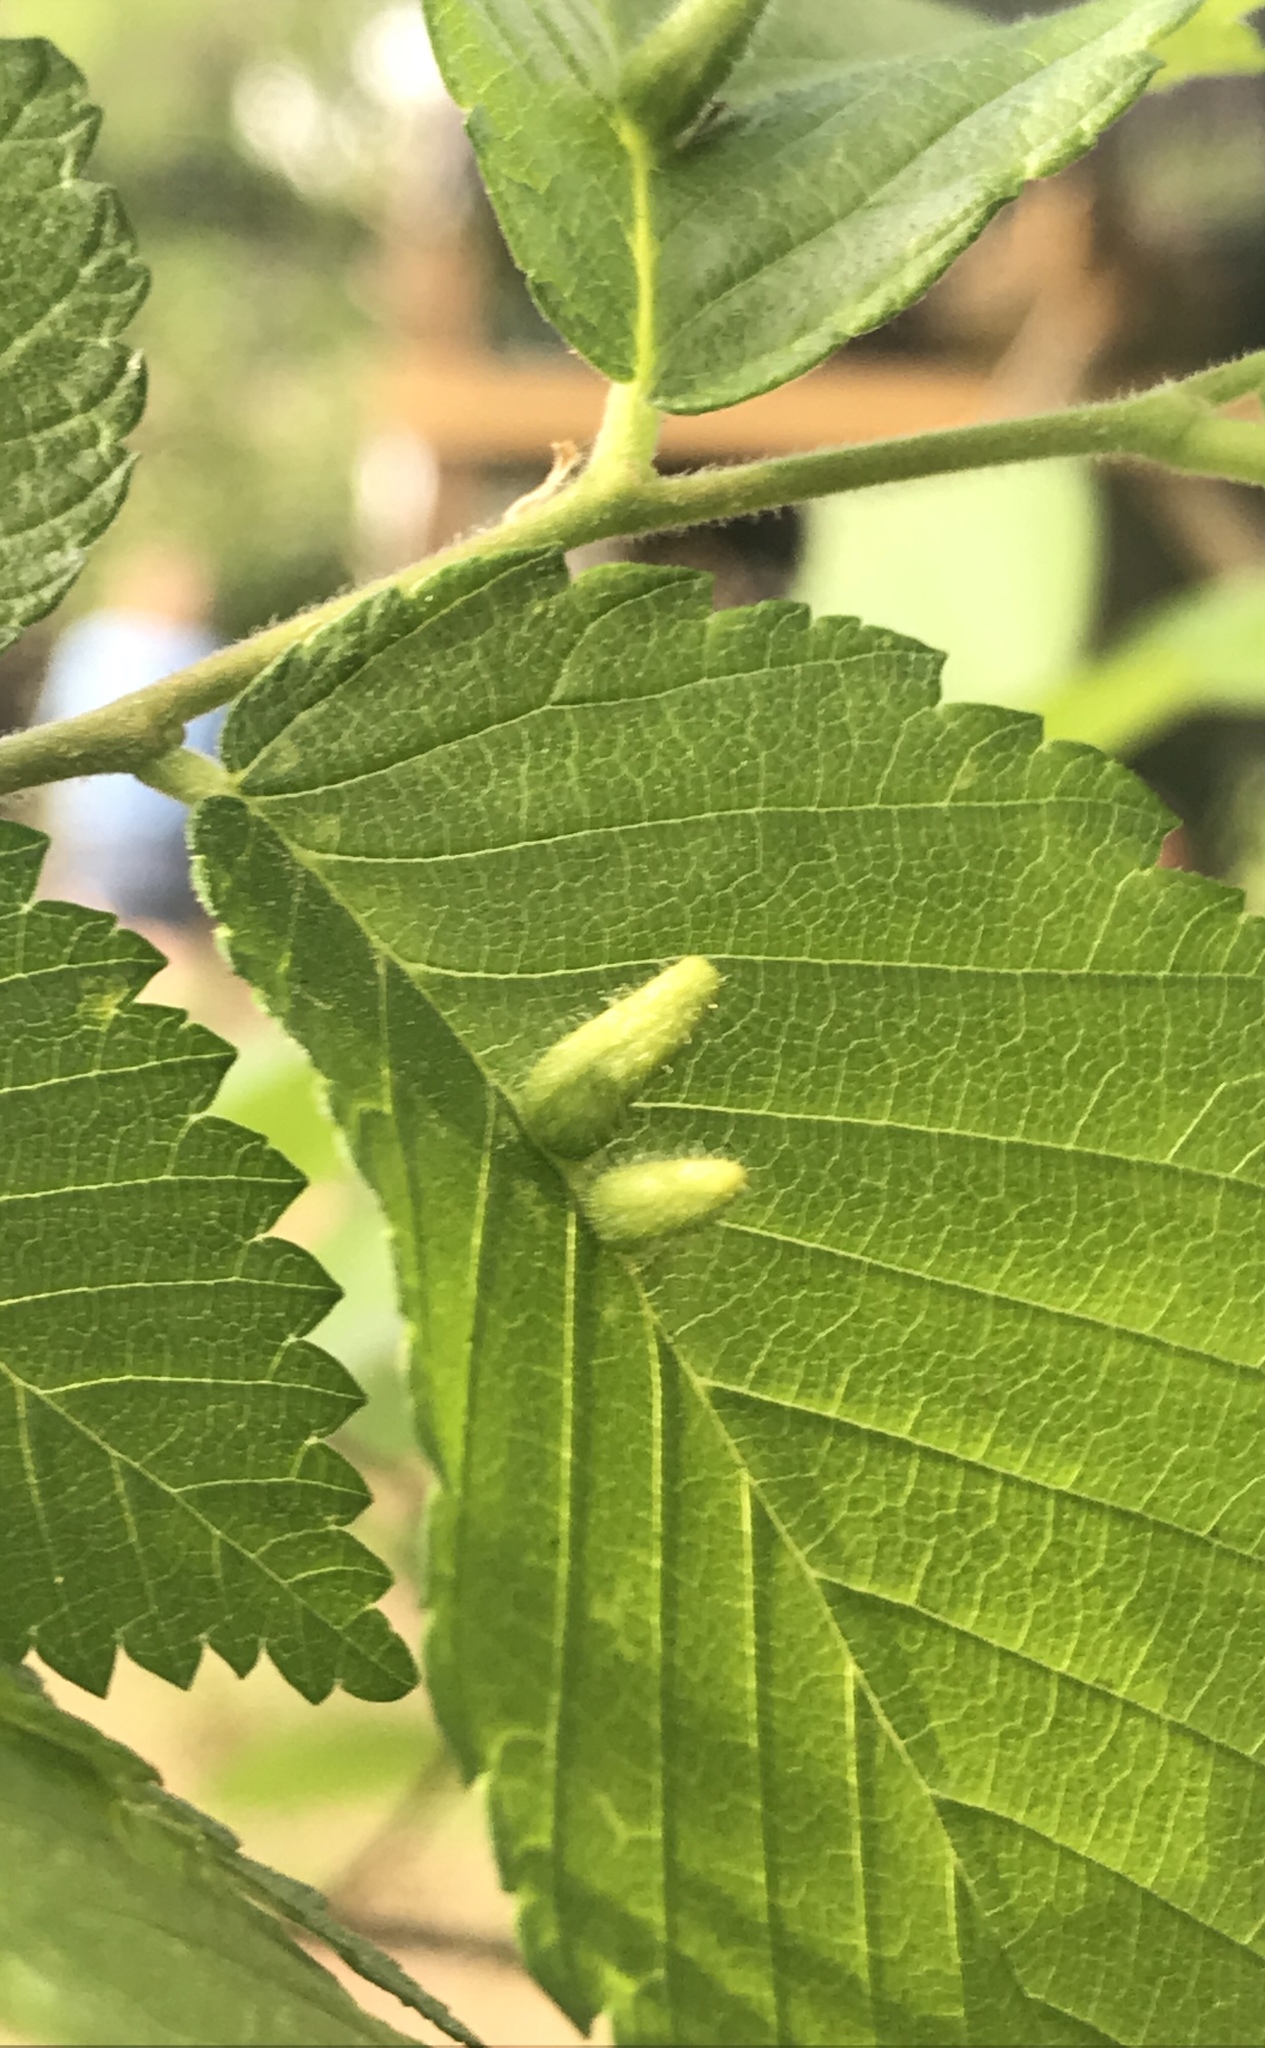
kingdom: Animalia
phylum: Arthropoda
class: Arachnida
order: Trombidiformes
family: Eriophyidae
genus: Aceria
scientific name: Aceria
